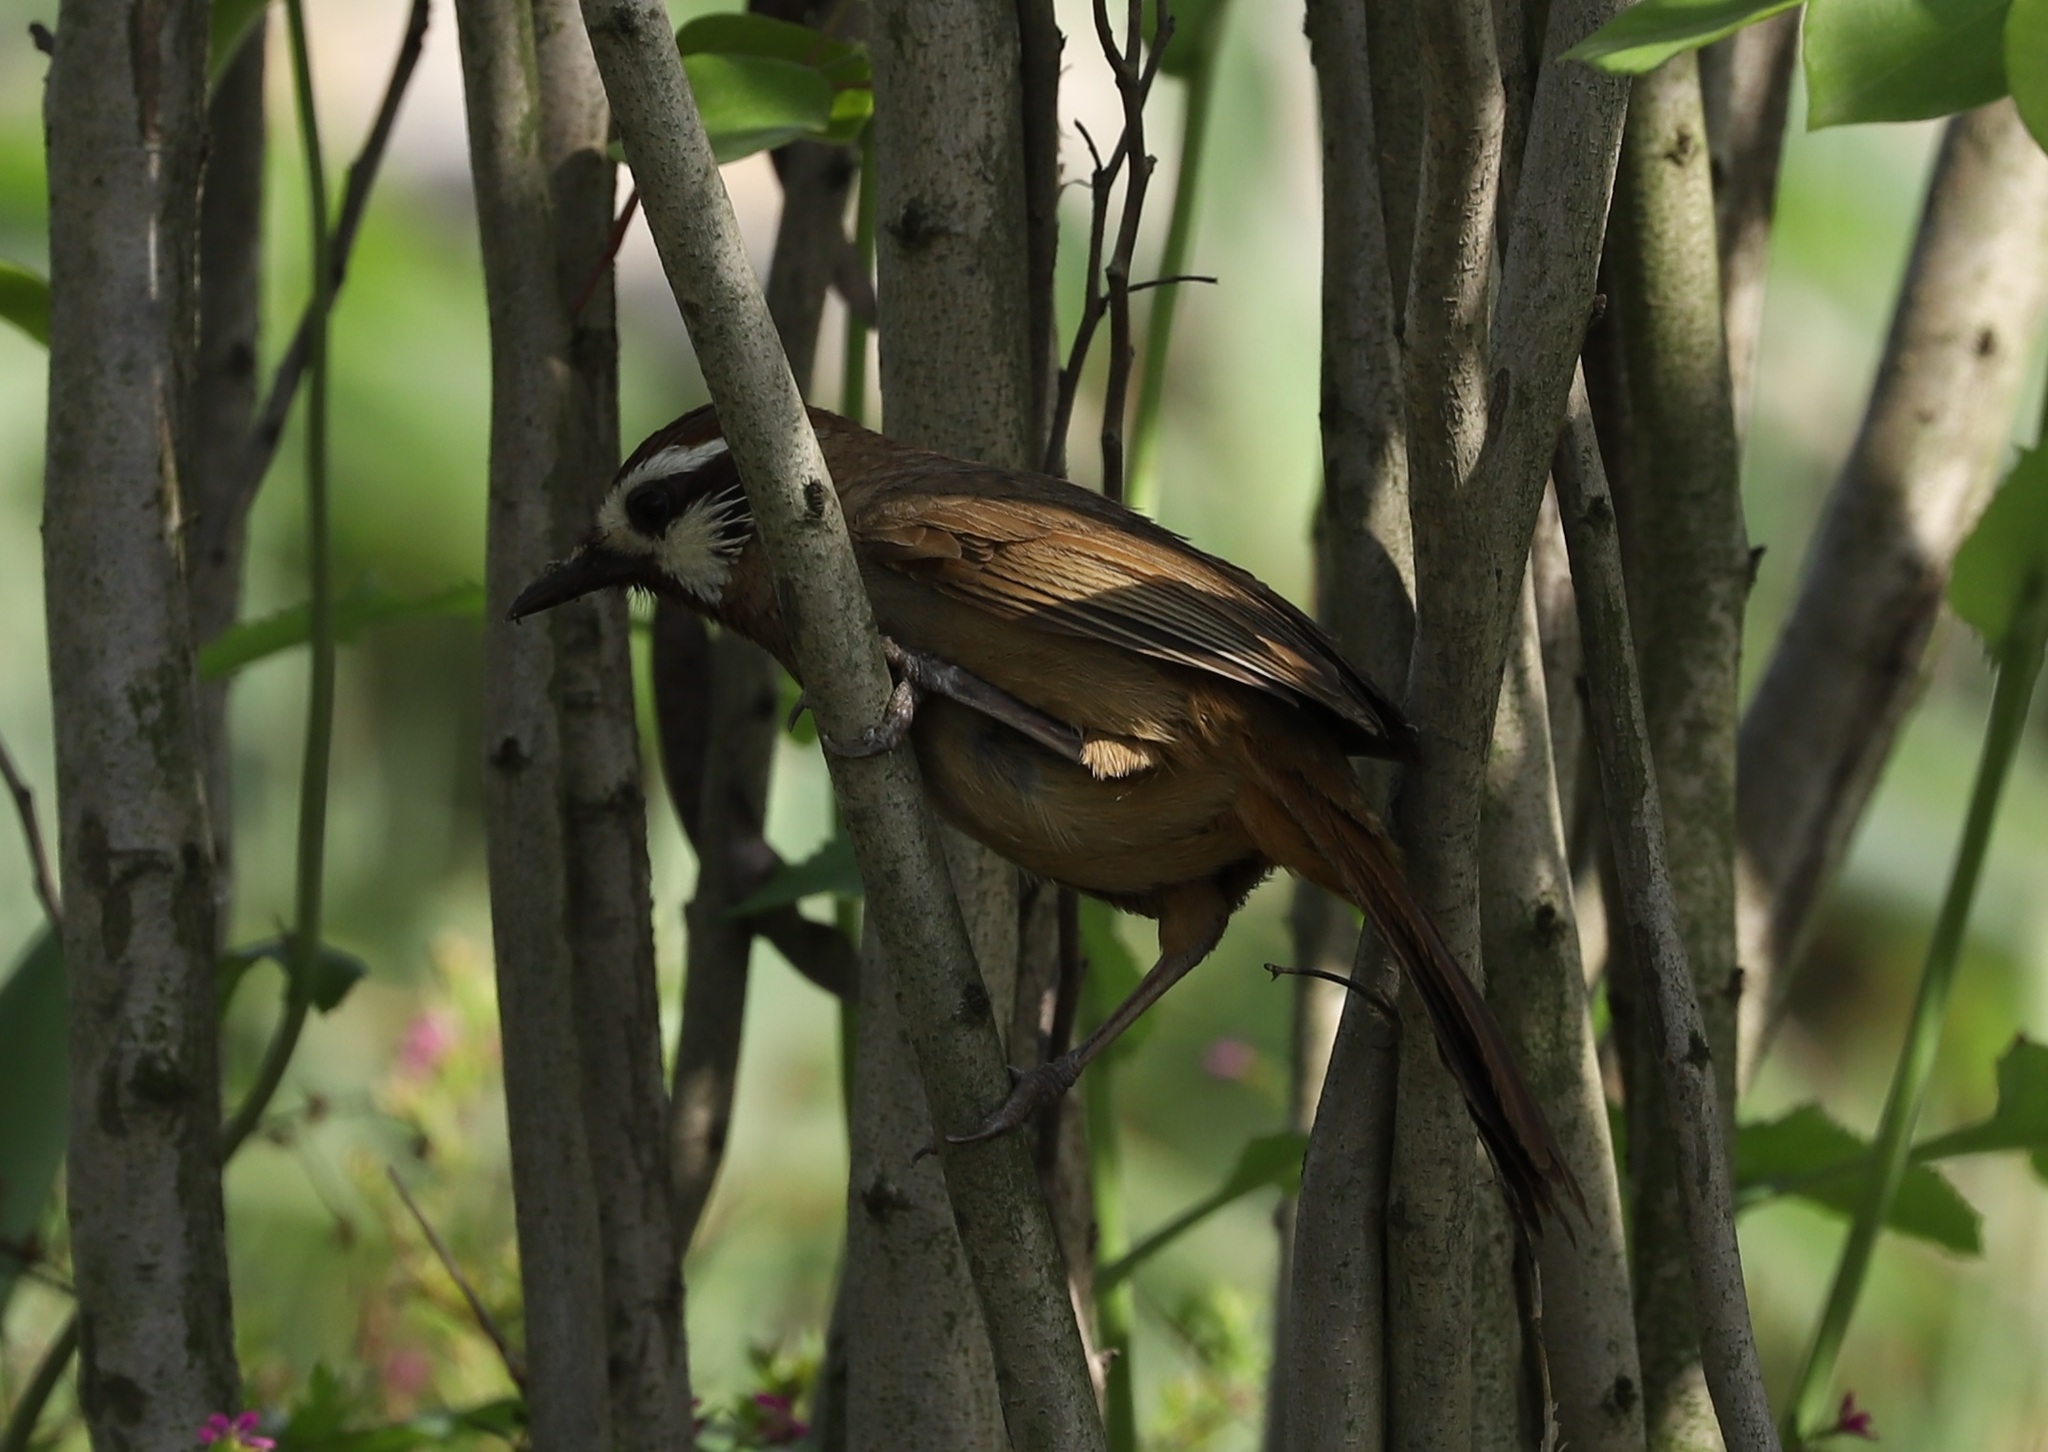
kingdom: Animalia
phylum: Chordata
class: Aves
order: Passeriformes
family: Leiothrichidae
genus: Pterorhinus
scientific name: Pterorhinus sannio
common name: White-browed laughingthrush
